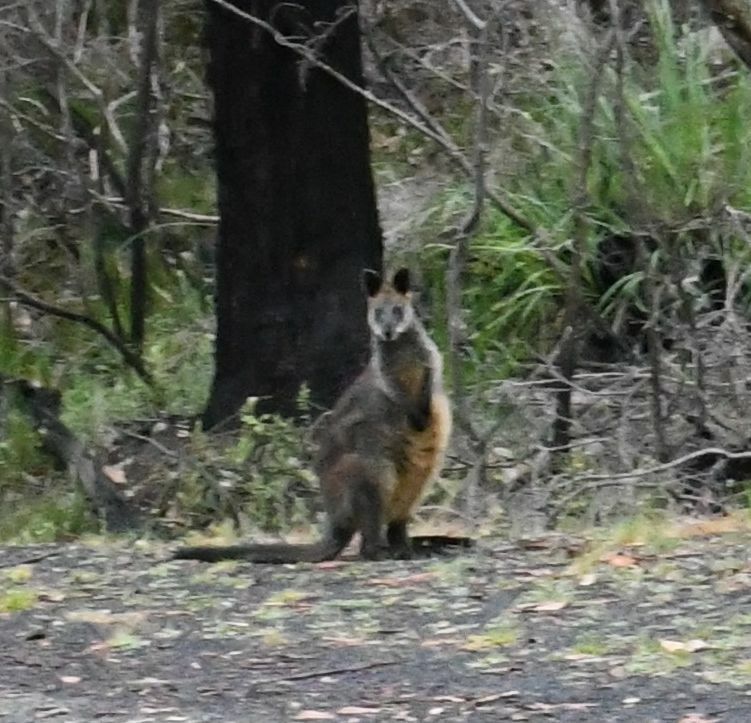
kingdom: Animalia
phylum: Chordata
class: Mammalia
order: Diprotodontia
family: Macropodidae
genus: Wallabia
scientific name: Wallabia bicolor
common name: Swamp wallaby
